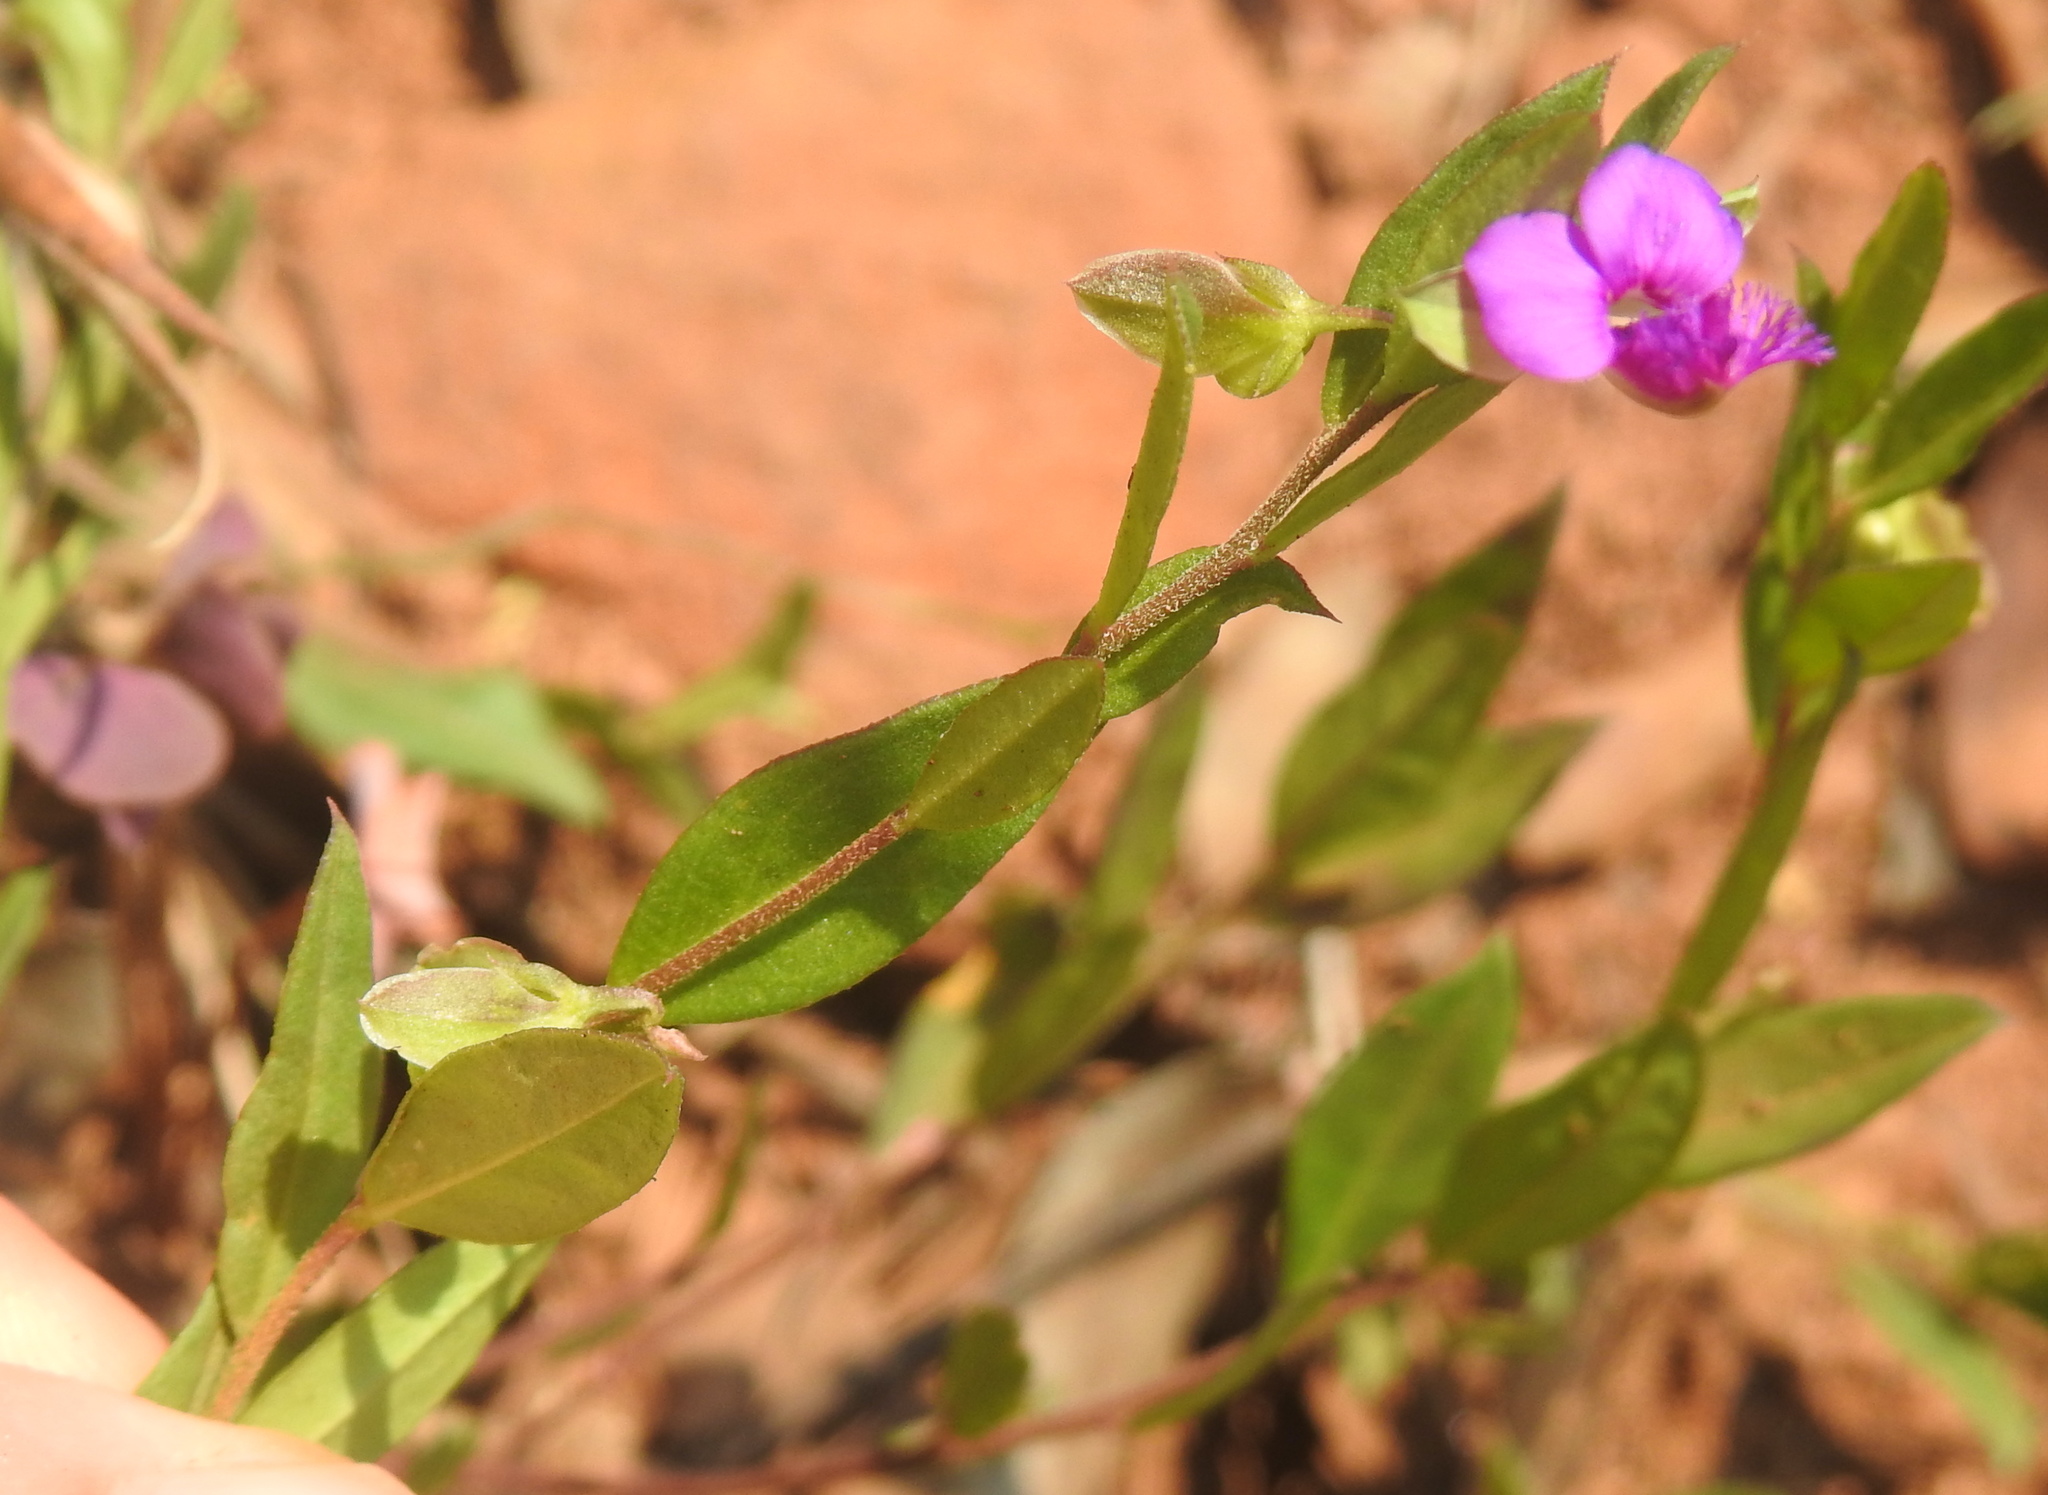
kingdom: Plantae
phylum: Tracheophyta
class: Magnoliopsida
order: Fabales
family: Polygalaceae
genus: Polygala
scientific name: Polygala amatymbica
